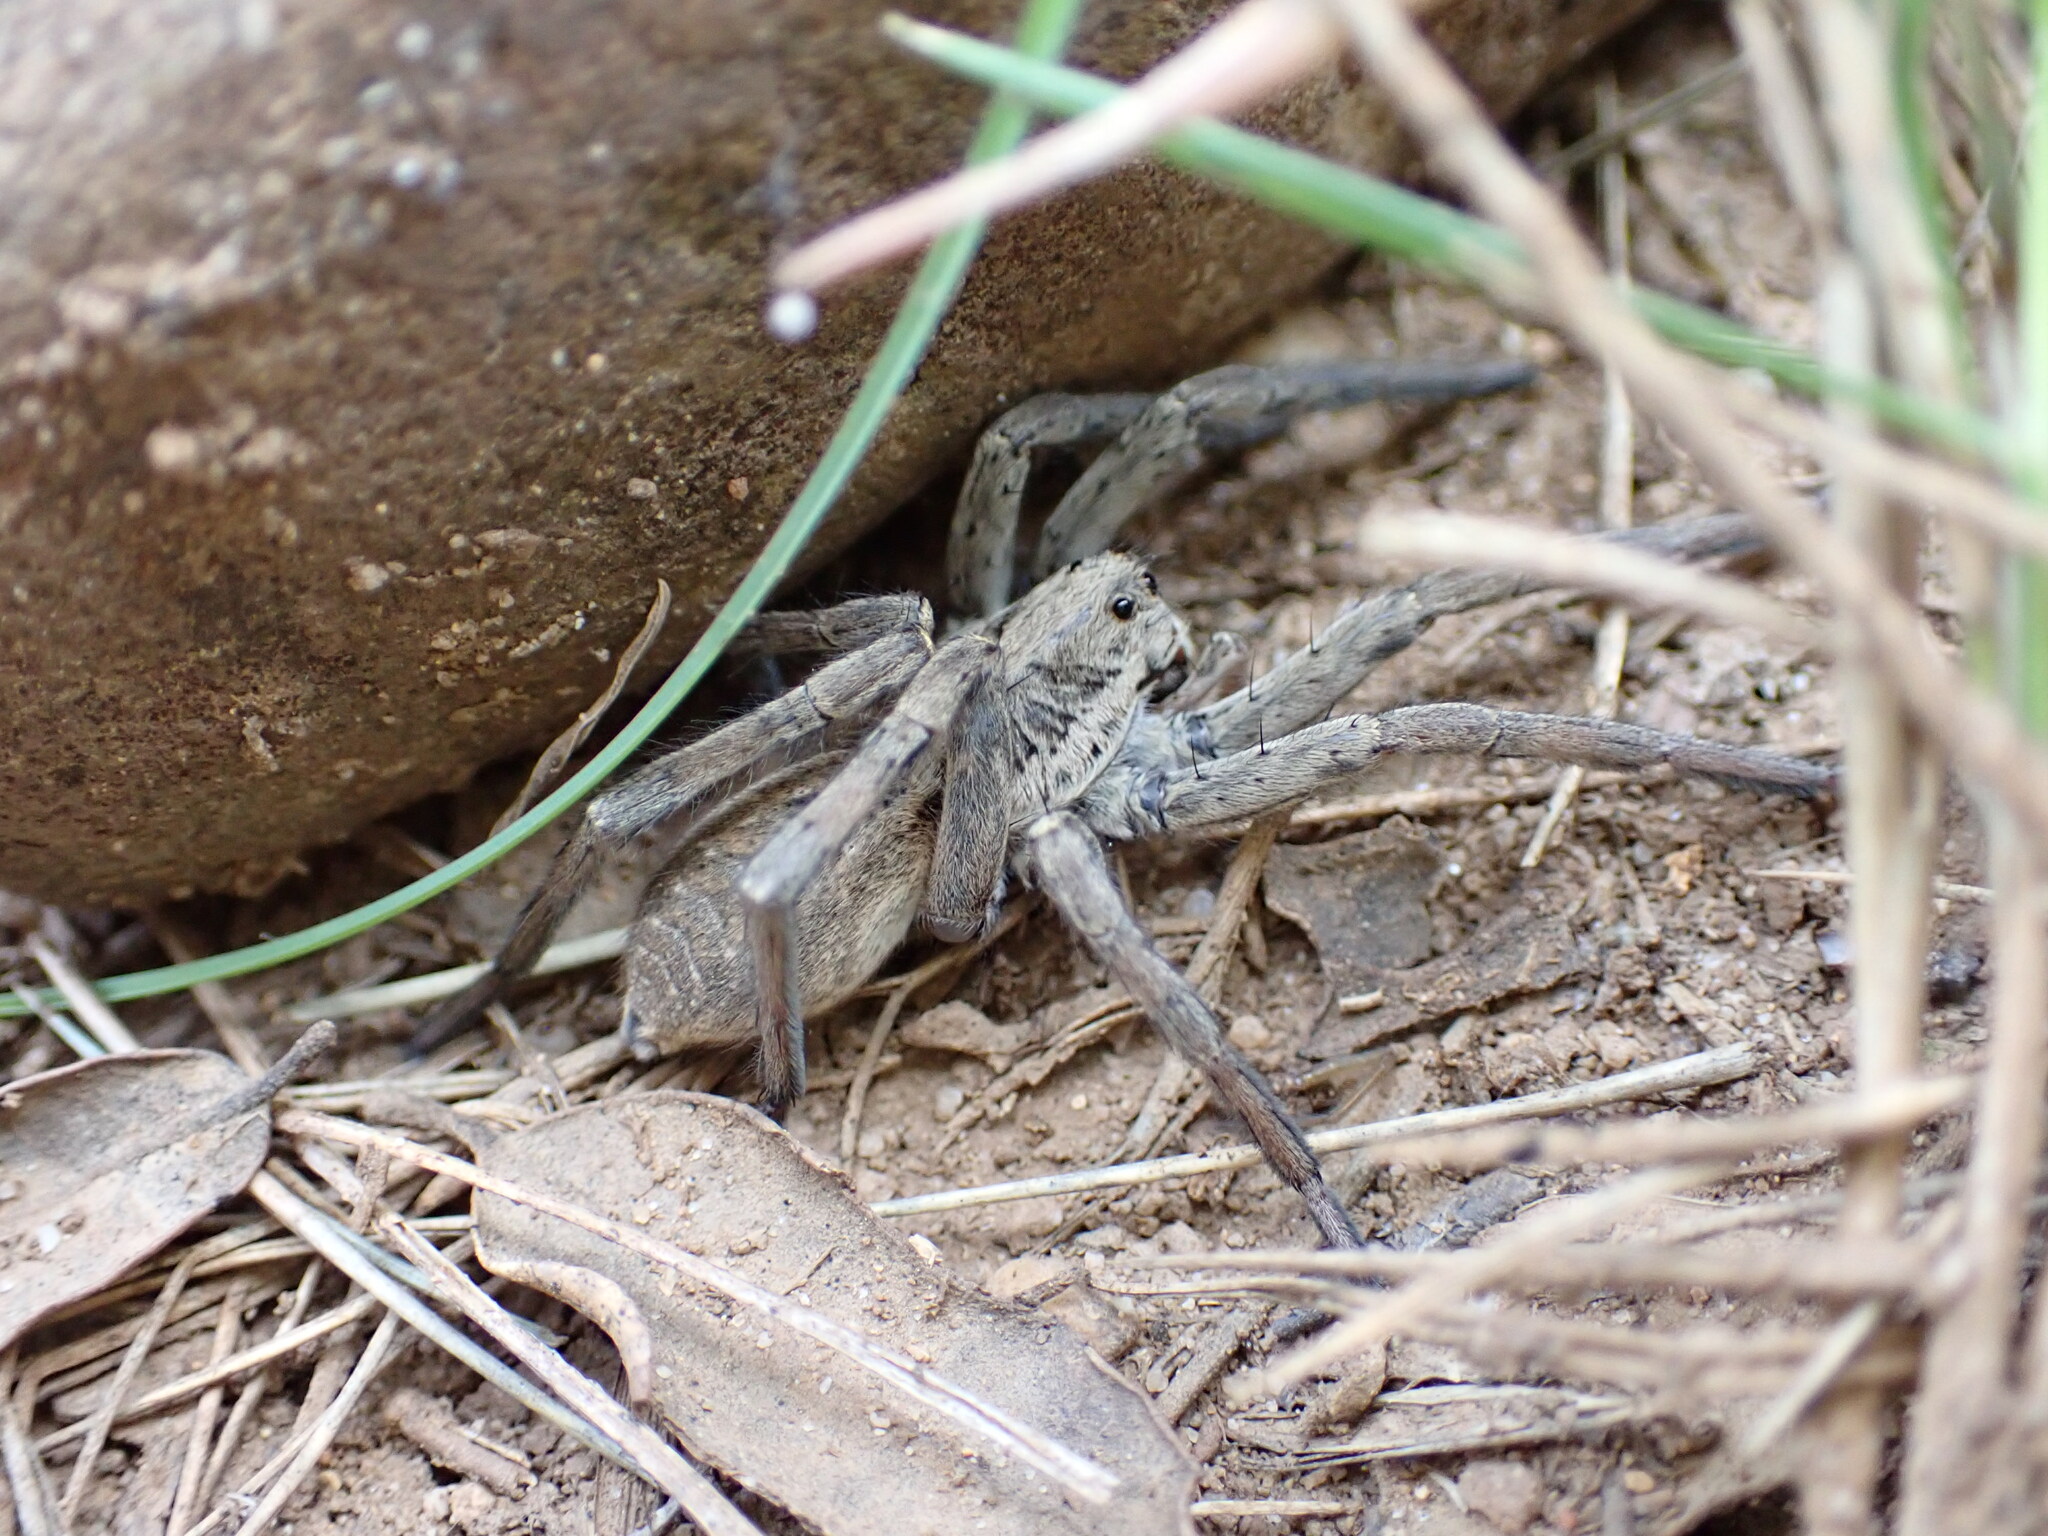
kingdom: Animalia
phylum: Arthropoda
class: Arachnida
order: Araneae
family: Lycosidae
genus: Hogna
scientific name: Hogna radiata
